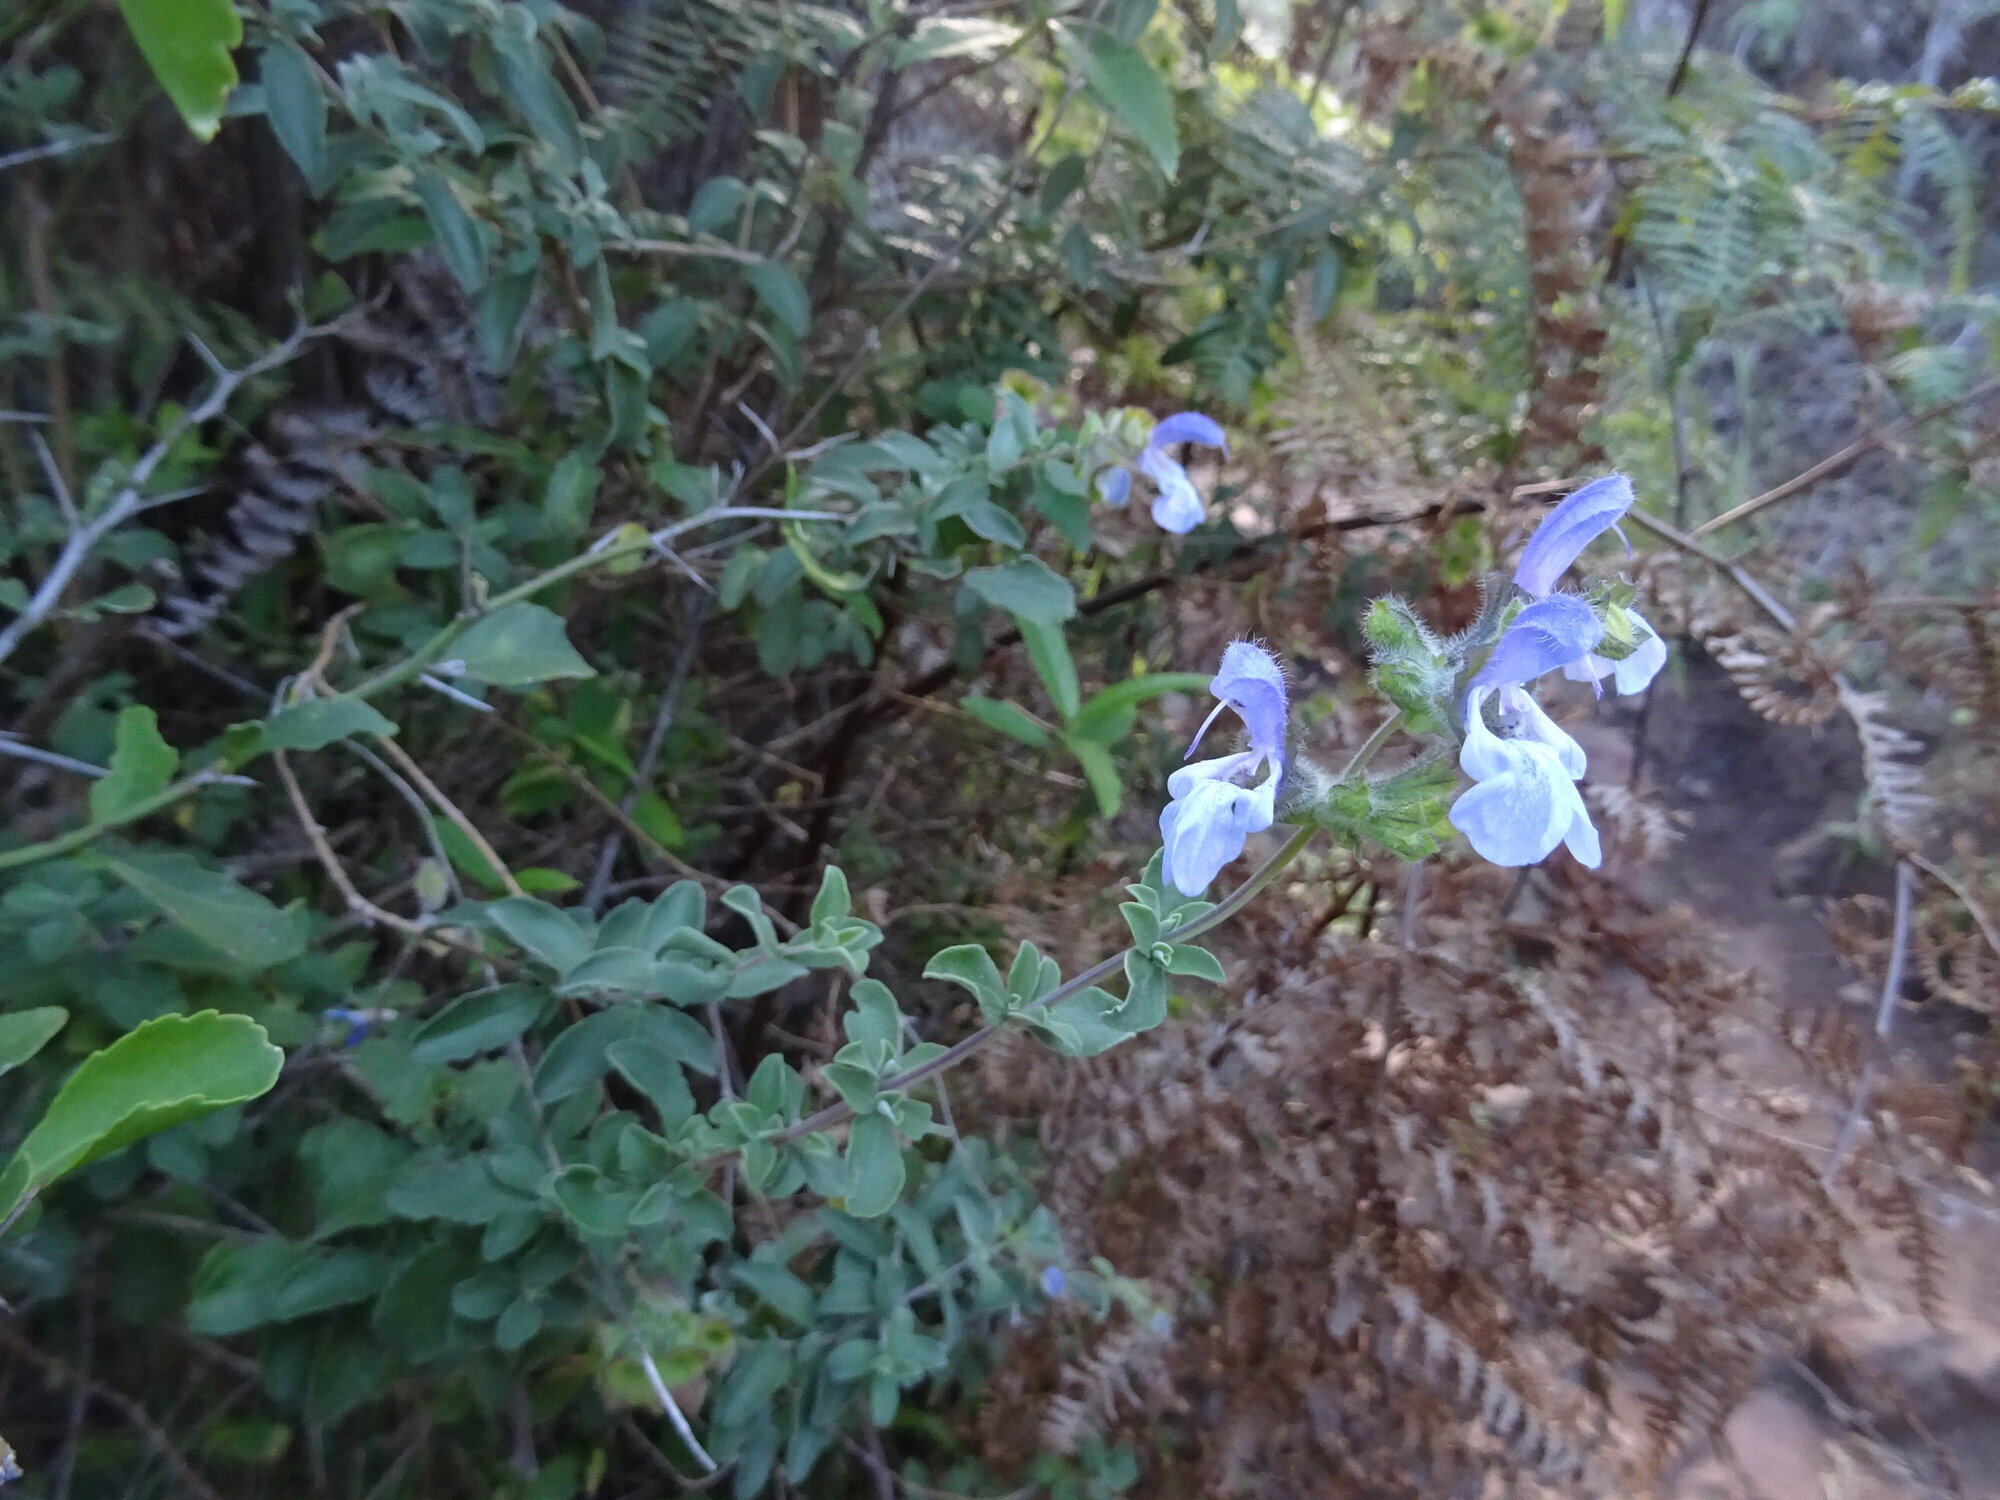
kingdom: Plantae
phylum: Tracheophyta
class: Magnoliopsida
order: Lamiales
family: Lamiaceae
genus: Salvia
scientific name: Salvia africana
